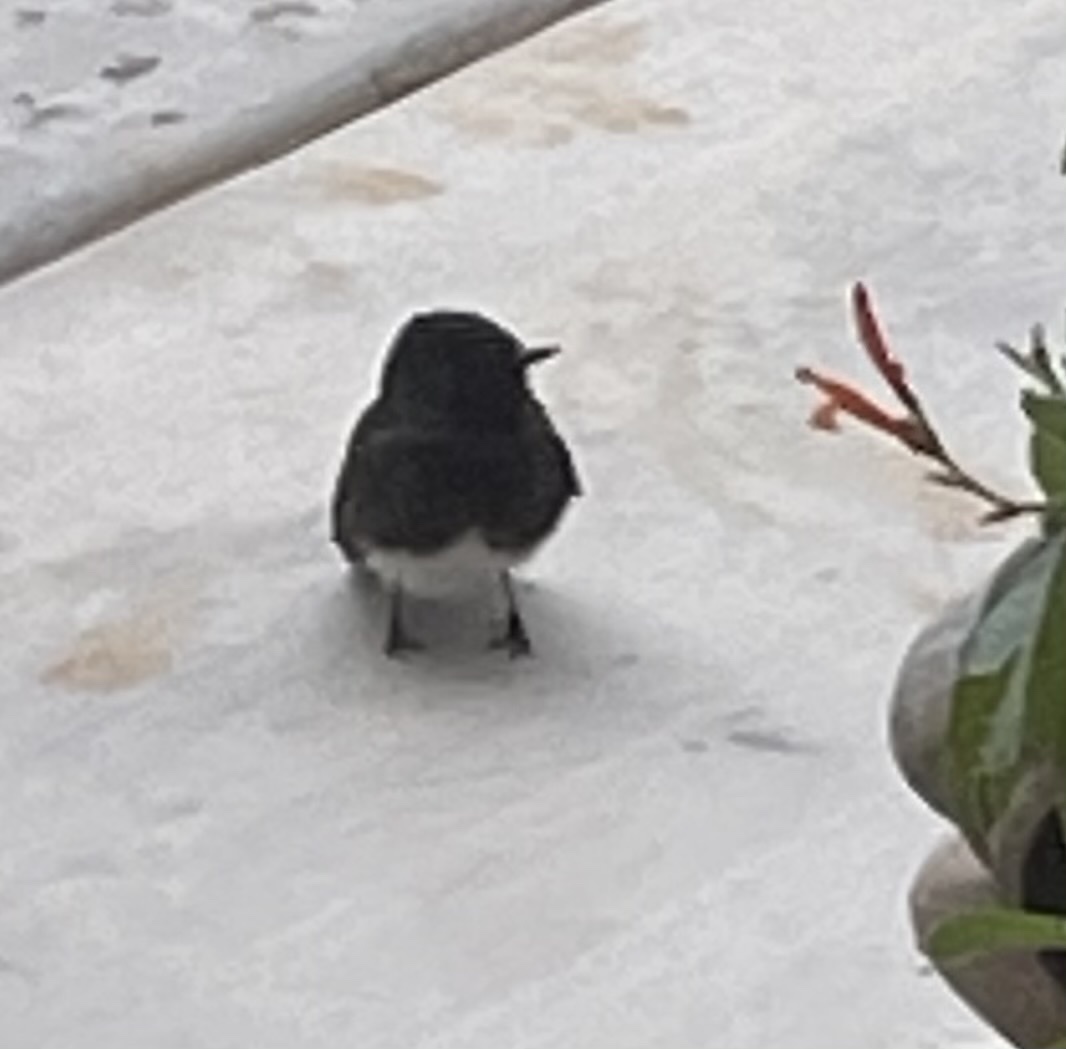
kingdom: Animalia
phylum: Chordata
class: Aves
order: Passeriformes
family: Tyrannidae
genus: Sayornis
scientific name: Sayornis nigricans
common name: Black phoebe
